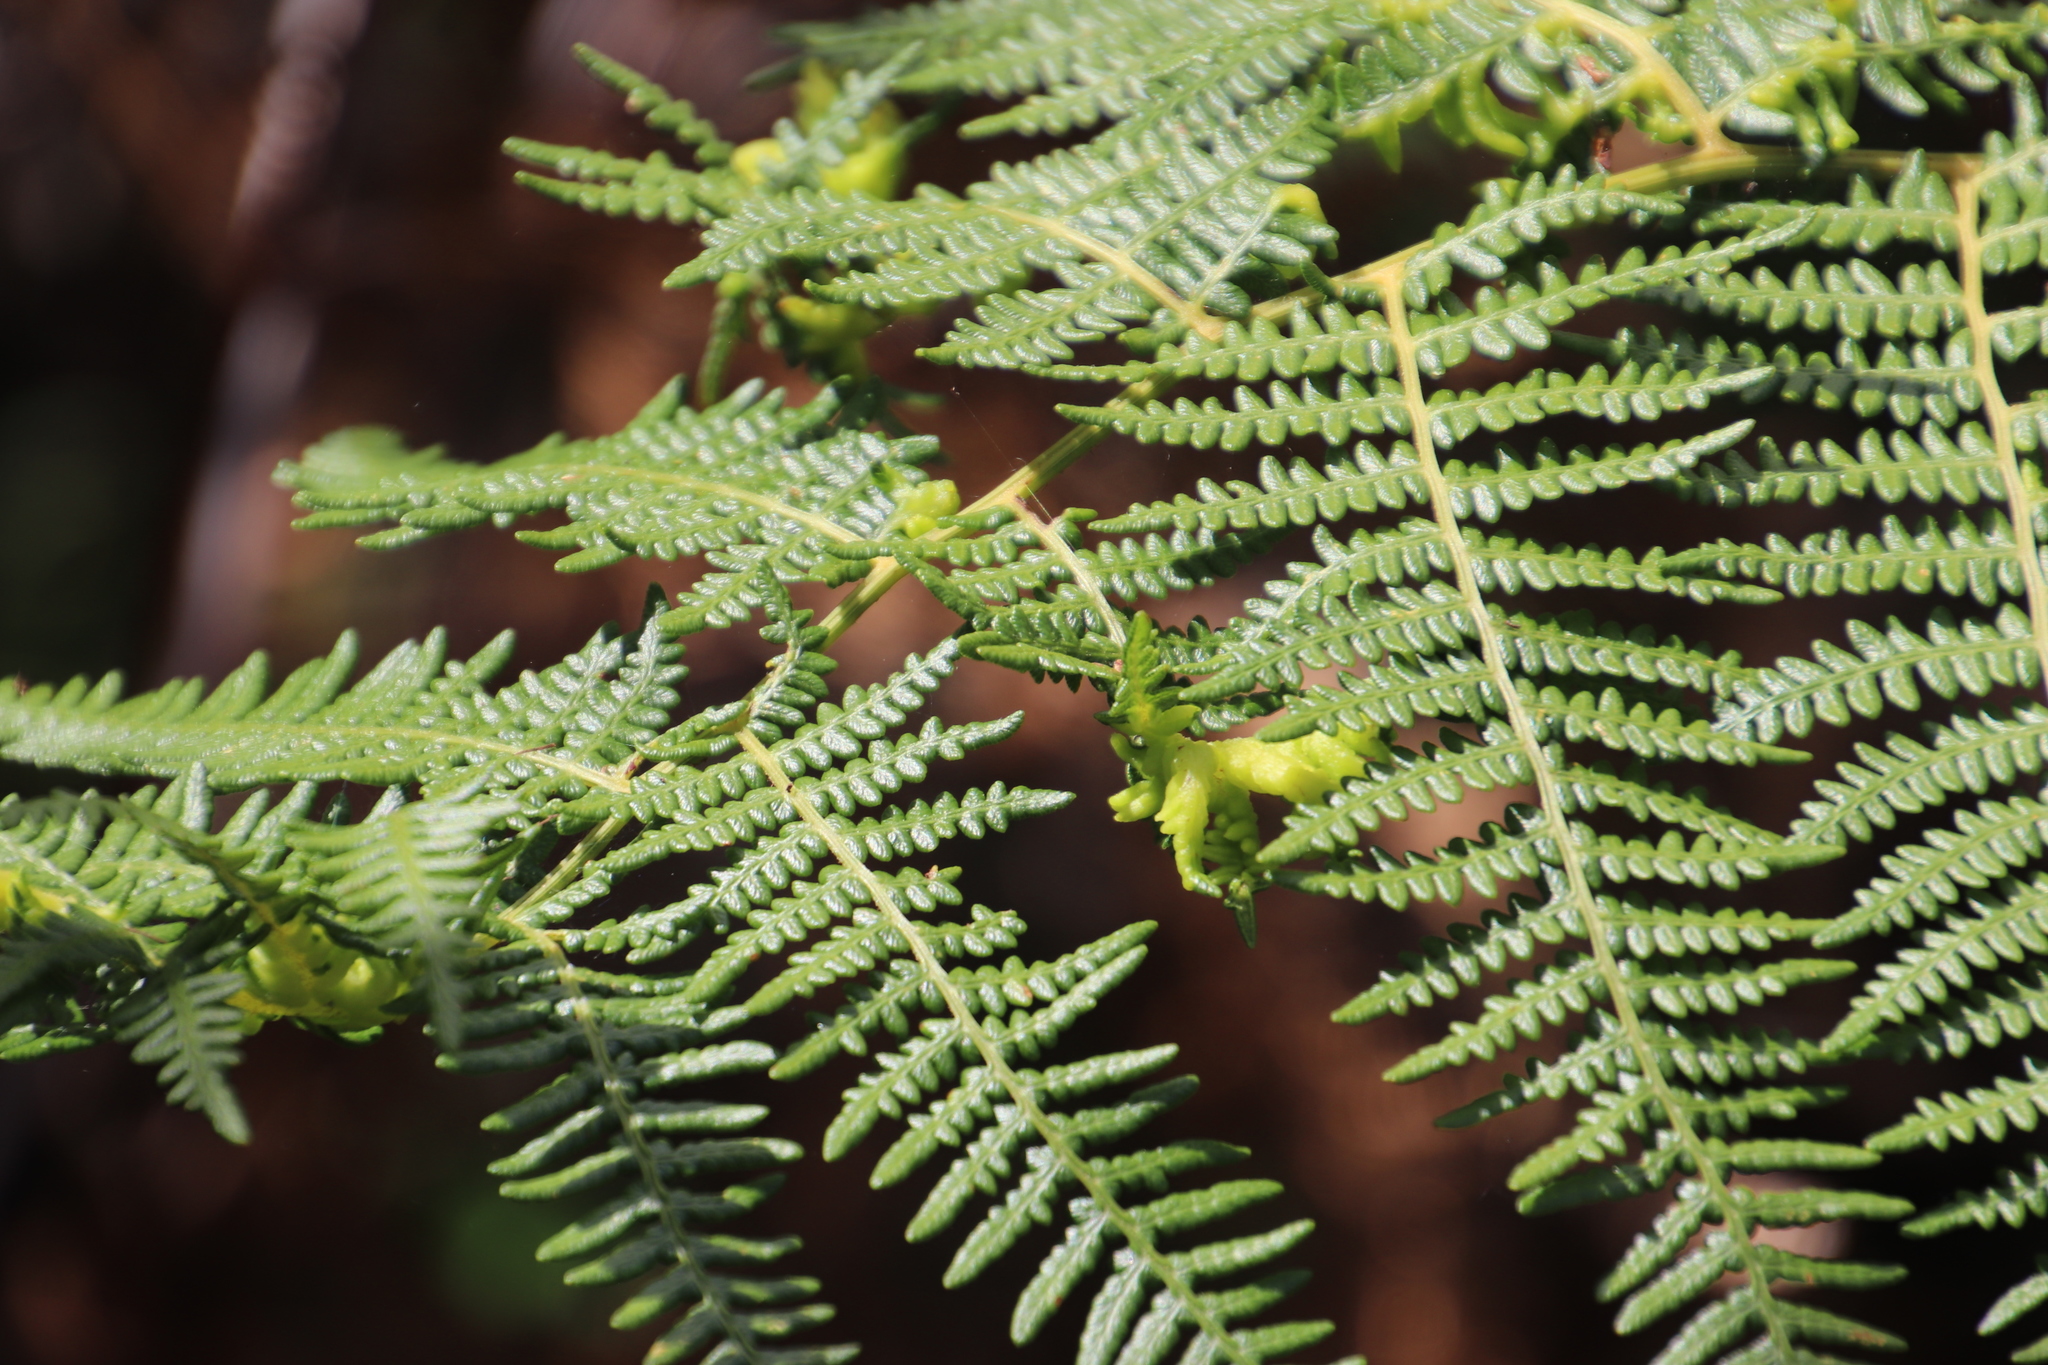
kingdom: Plantae
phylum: Tracheophyta
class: Polypodiopsida
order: Polypodiales
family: Dennstaedtiaceae
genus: Pteridium
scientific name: Pteridium aquilinum
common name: Bracken
